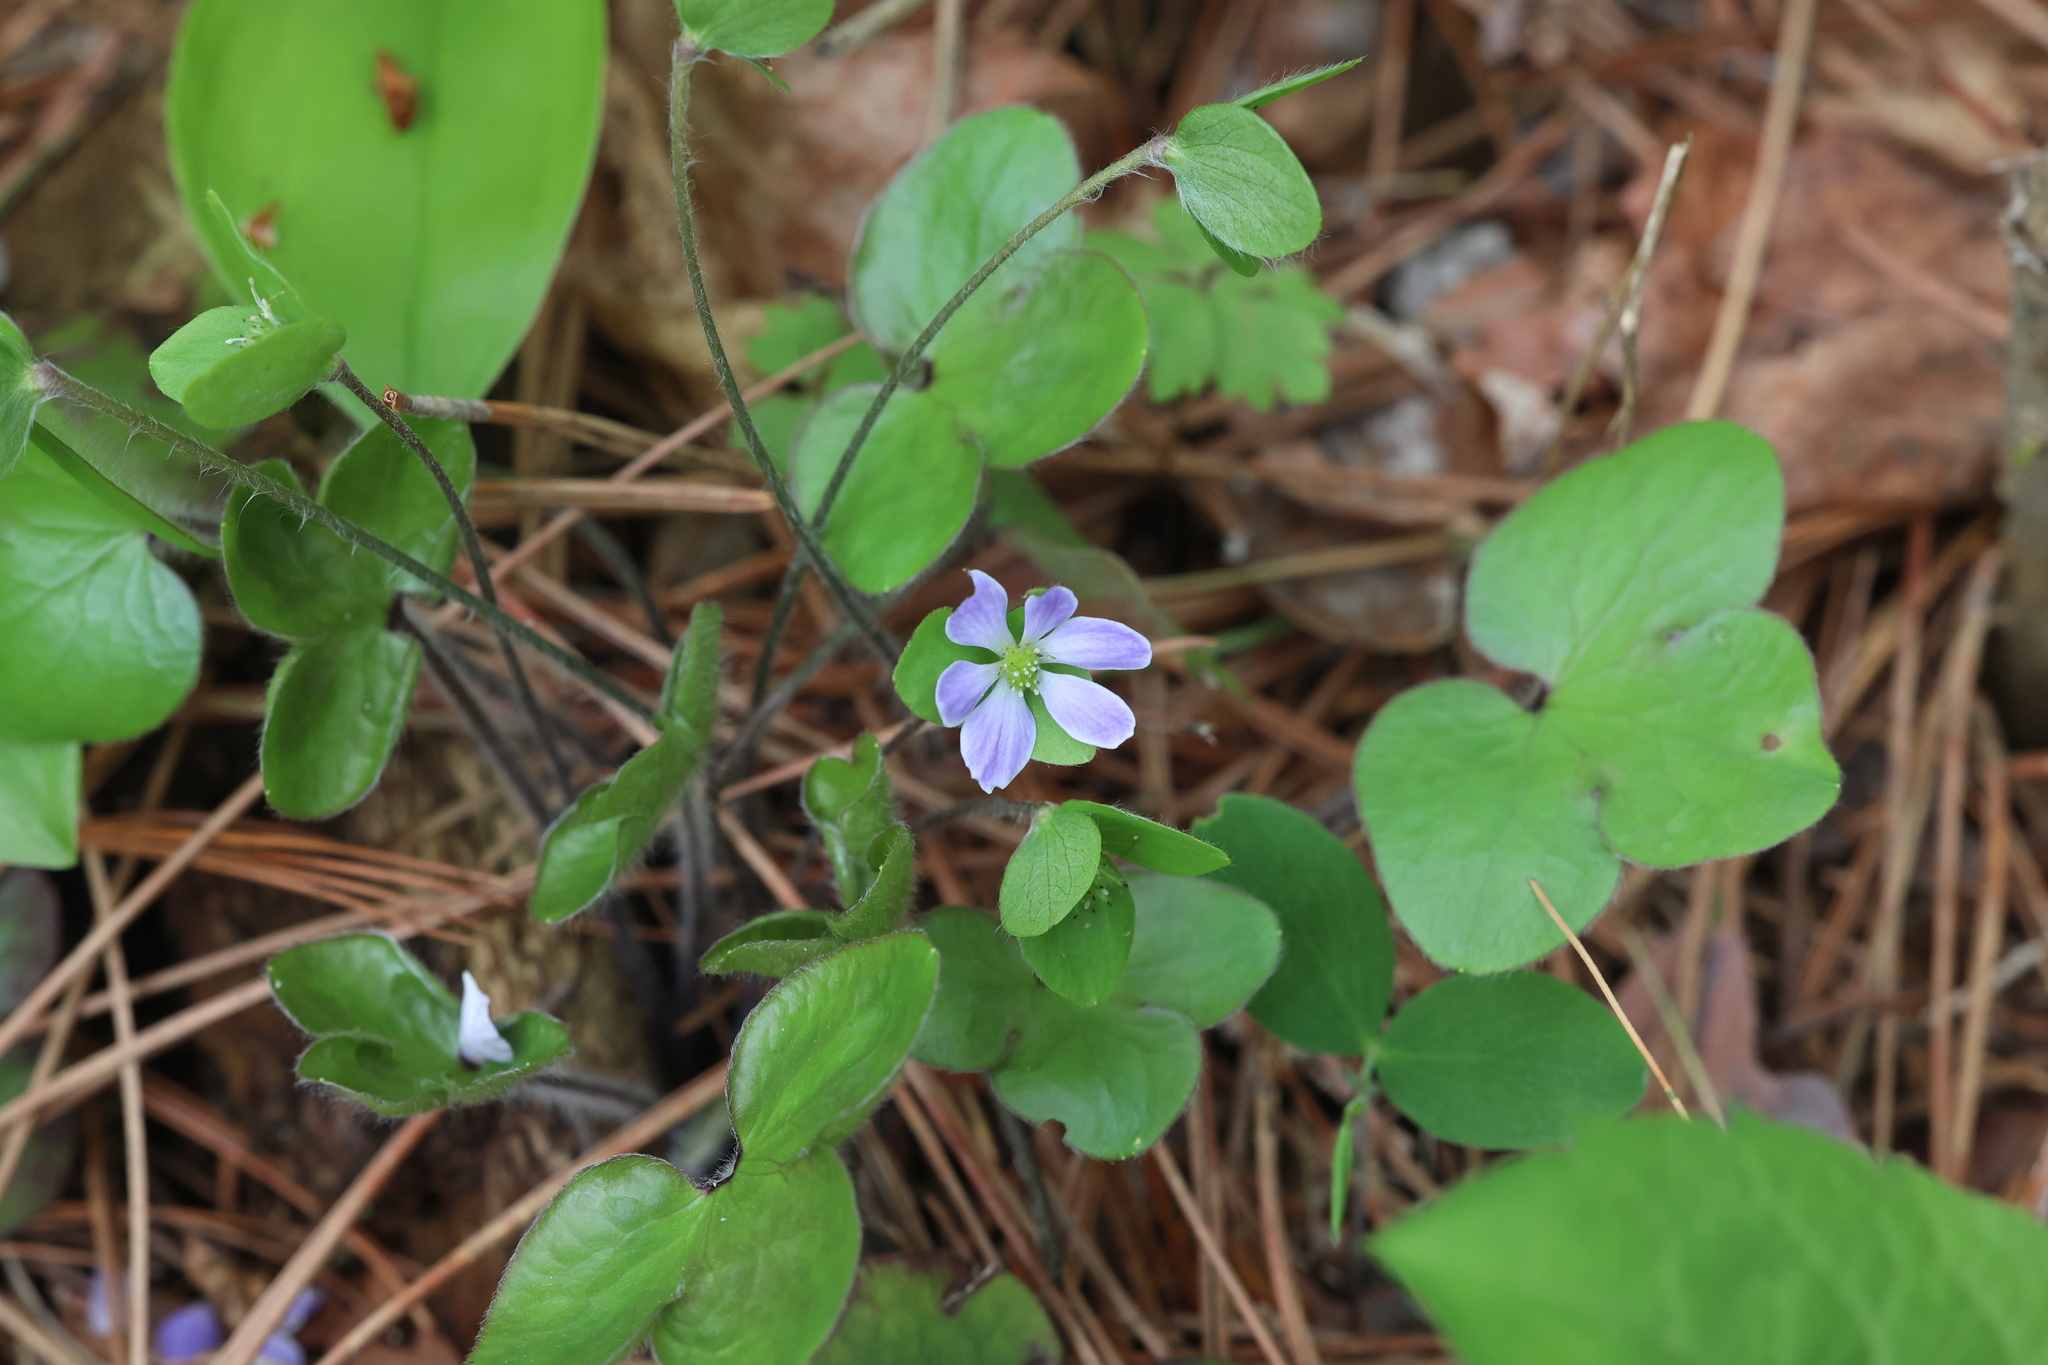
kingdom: Plantae
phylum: Tracheophyta
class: Magnoliopsida
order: Ranunculales
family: Ranunculaceae
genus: Hepatica
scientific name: Hepatica americana
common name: American hepatica
